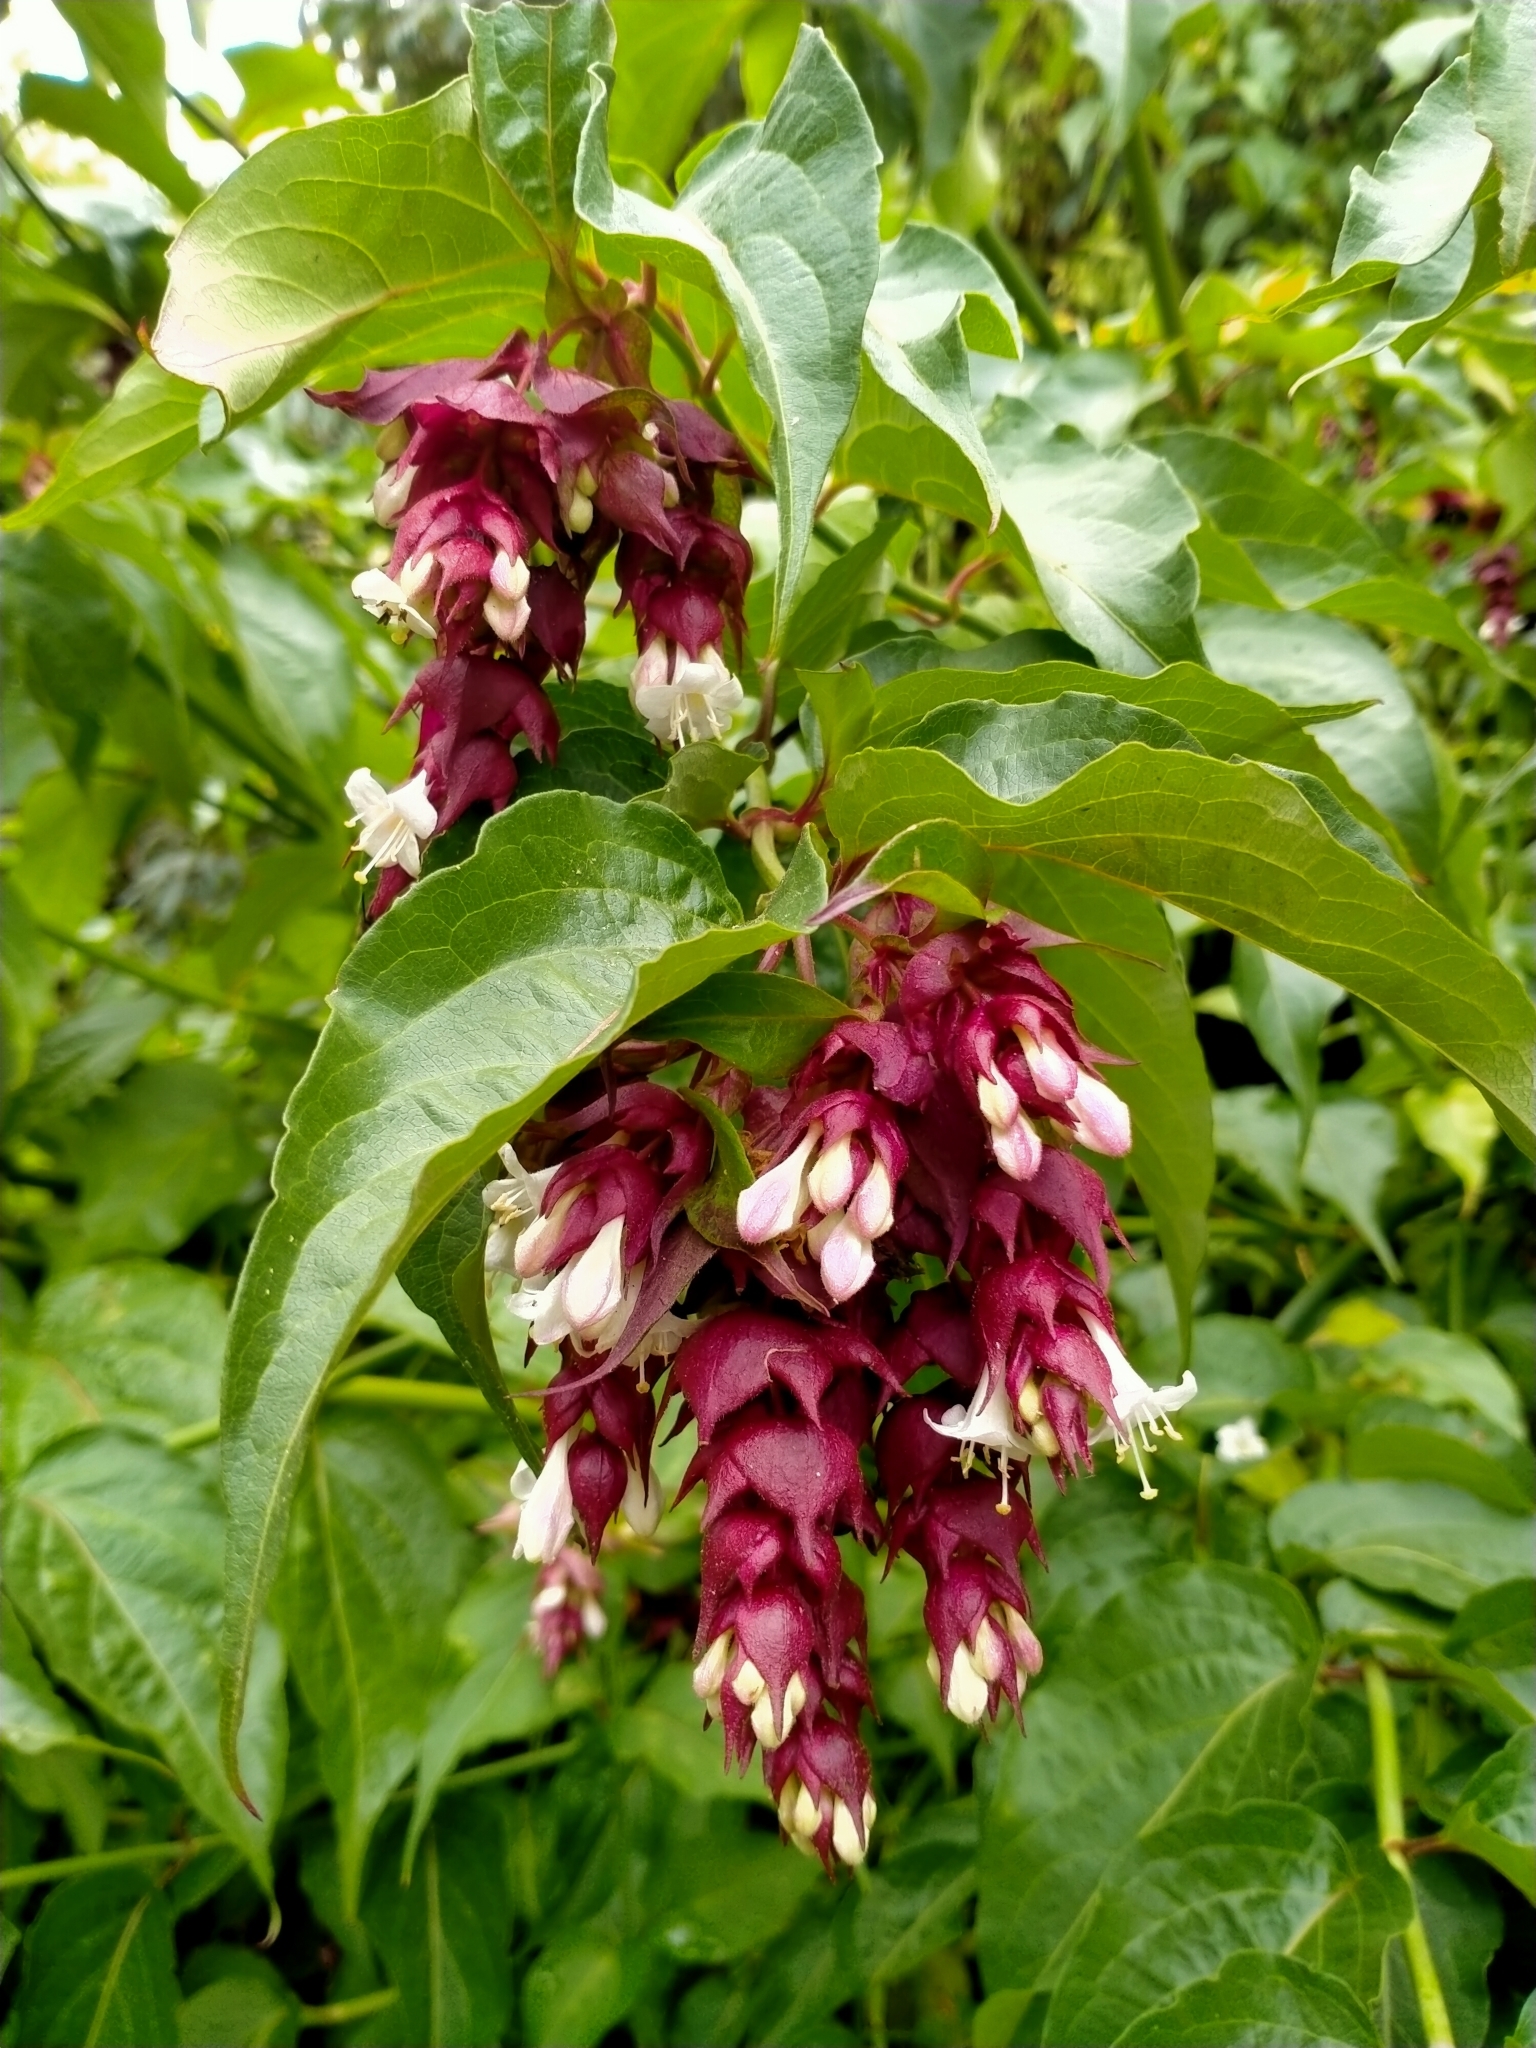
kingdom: Plantae
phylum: Tracheophyta
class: Magnoliopsida
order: Dipsacales
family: Caprifoliaceae
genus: Leycesteria
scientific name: Leycesteria formosa
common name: Himalayan honeysuckle
